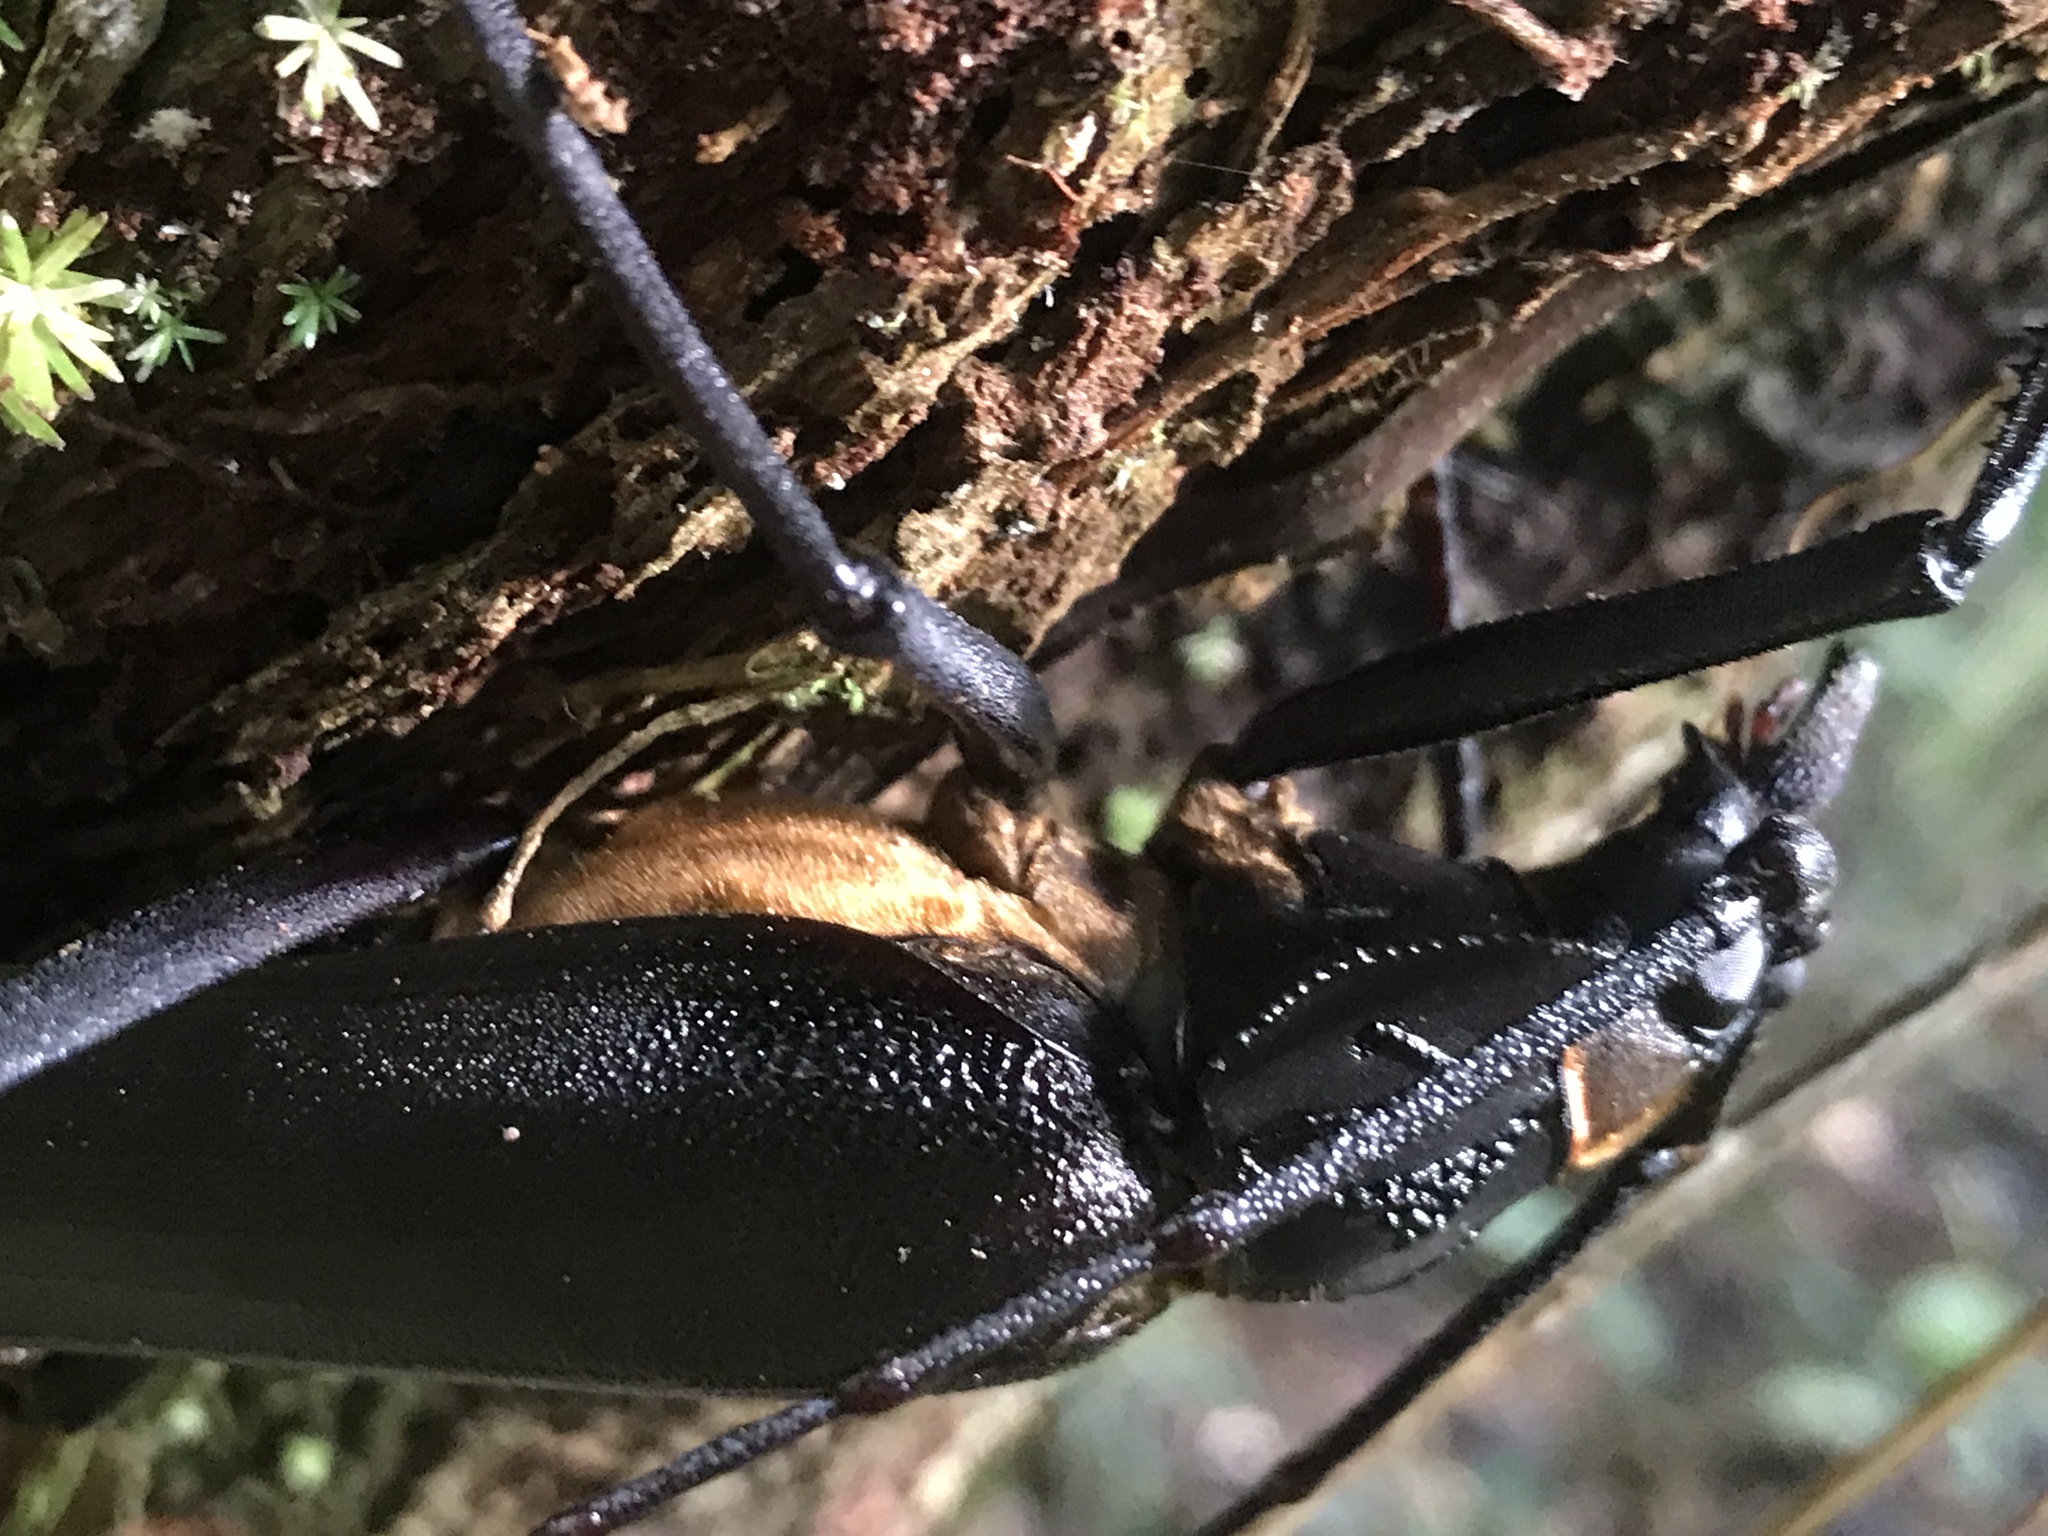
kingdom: Animalia
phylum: Arthropoda
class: Insecta
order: Coleoptera
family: Cerambycidae
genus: Ctenoscelis
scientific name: Ctenoscelis ater
